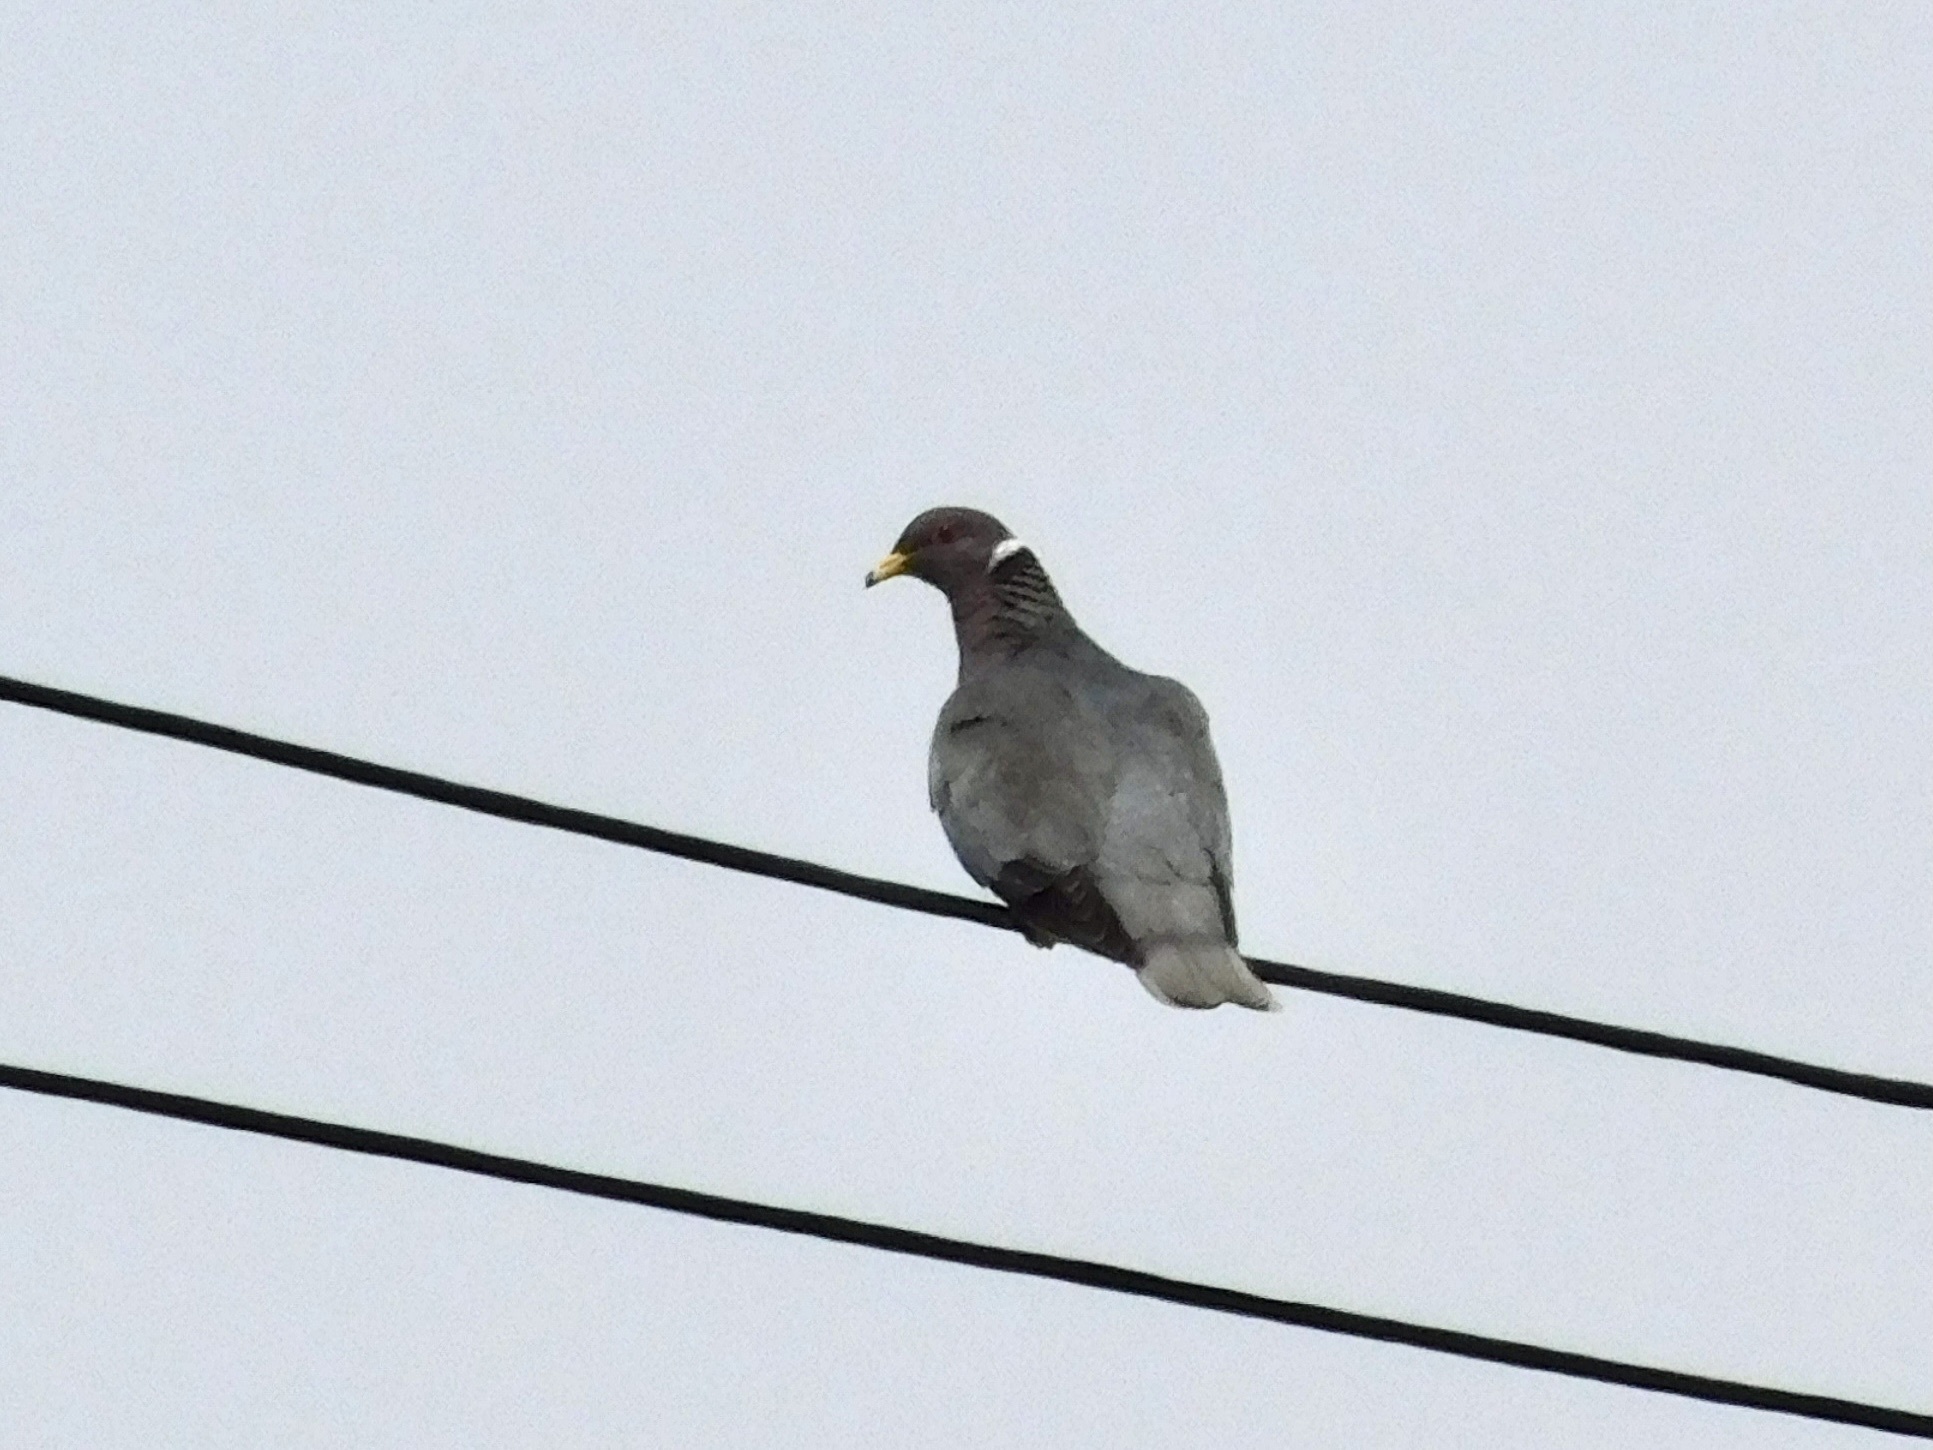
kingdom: Animalia
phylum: Chordata
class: Aves
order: Columbiformes
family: Columbidae
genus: Patagioenas
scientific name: Patagioenas fasciata
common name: Band-tailed pigeon
